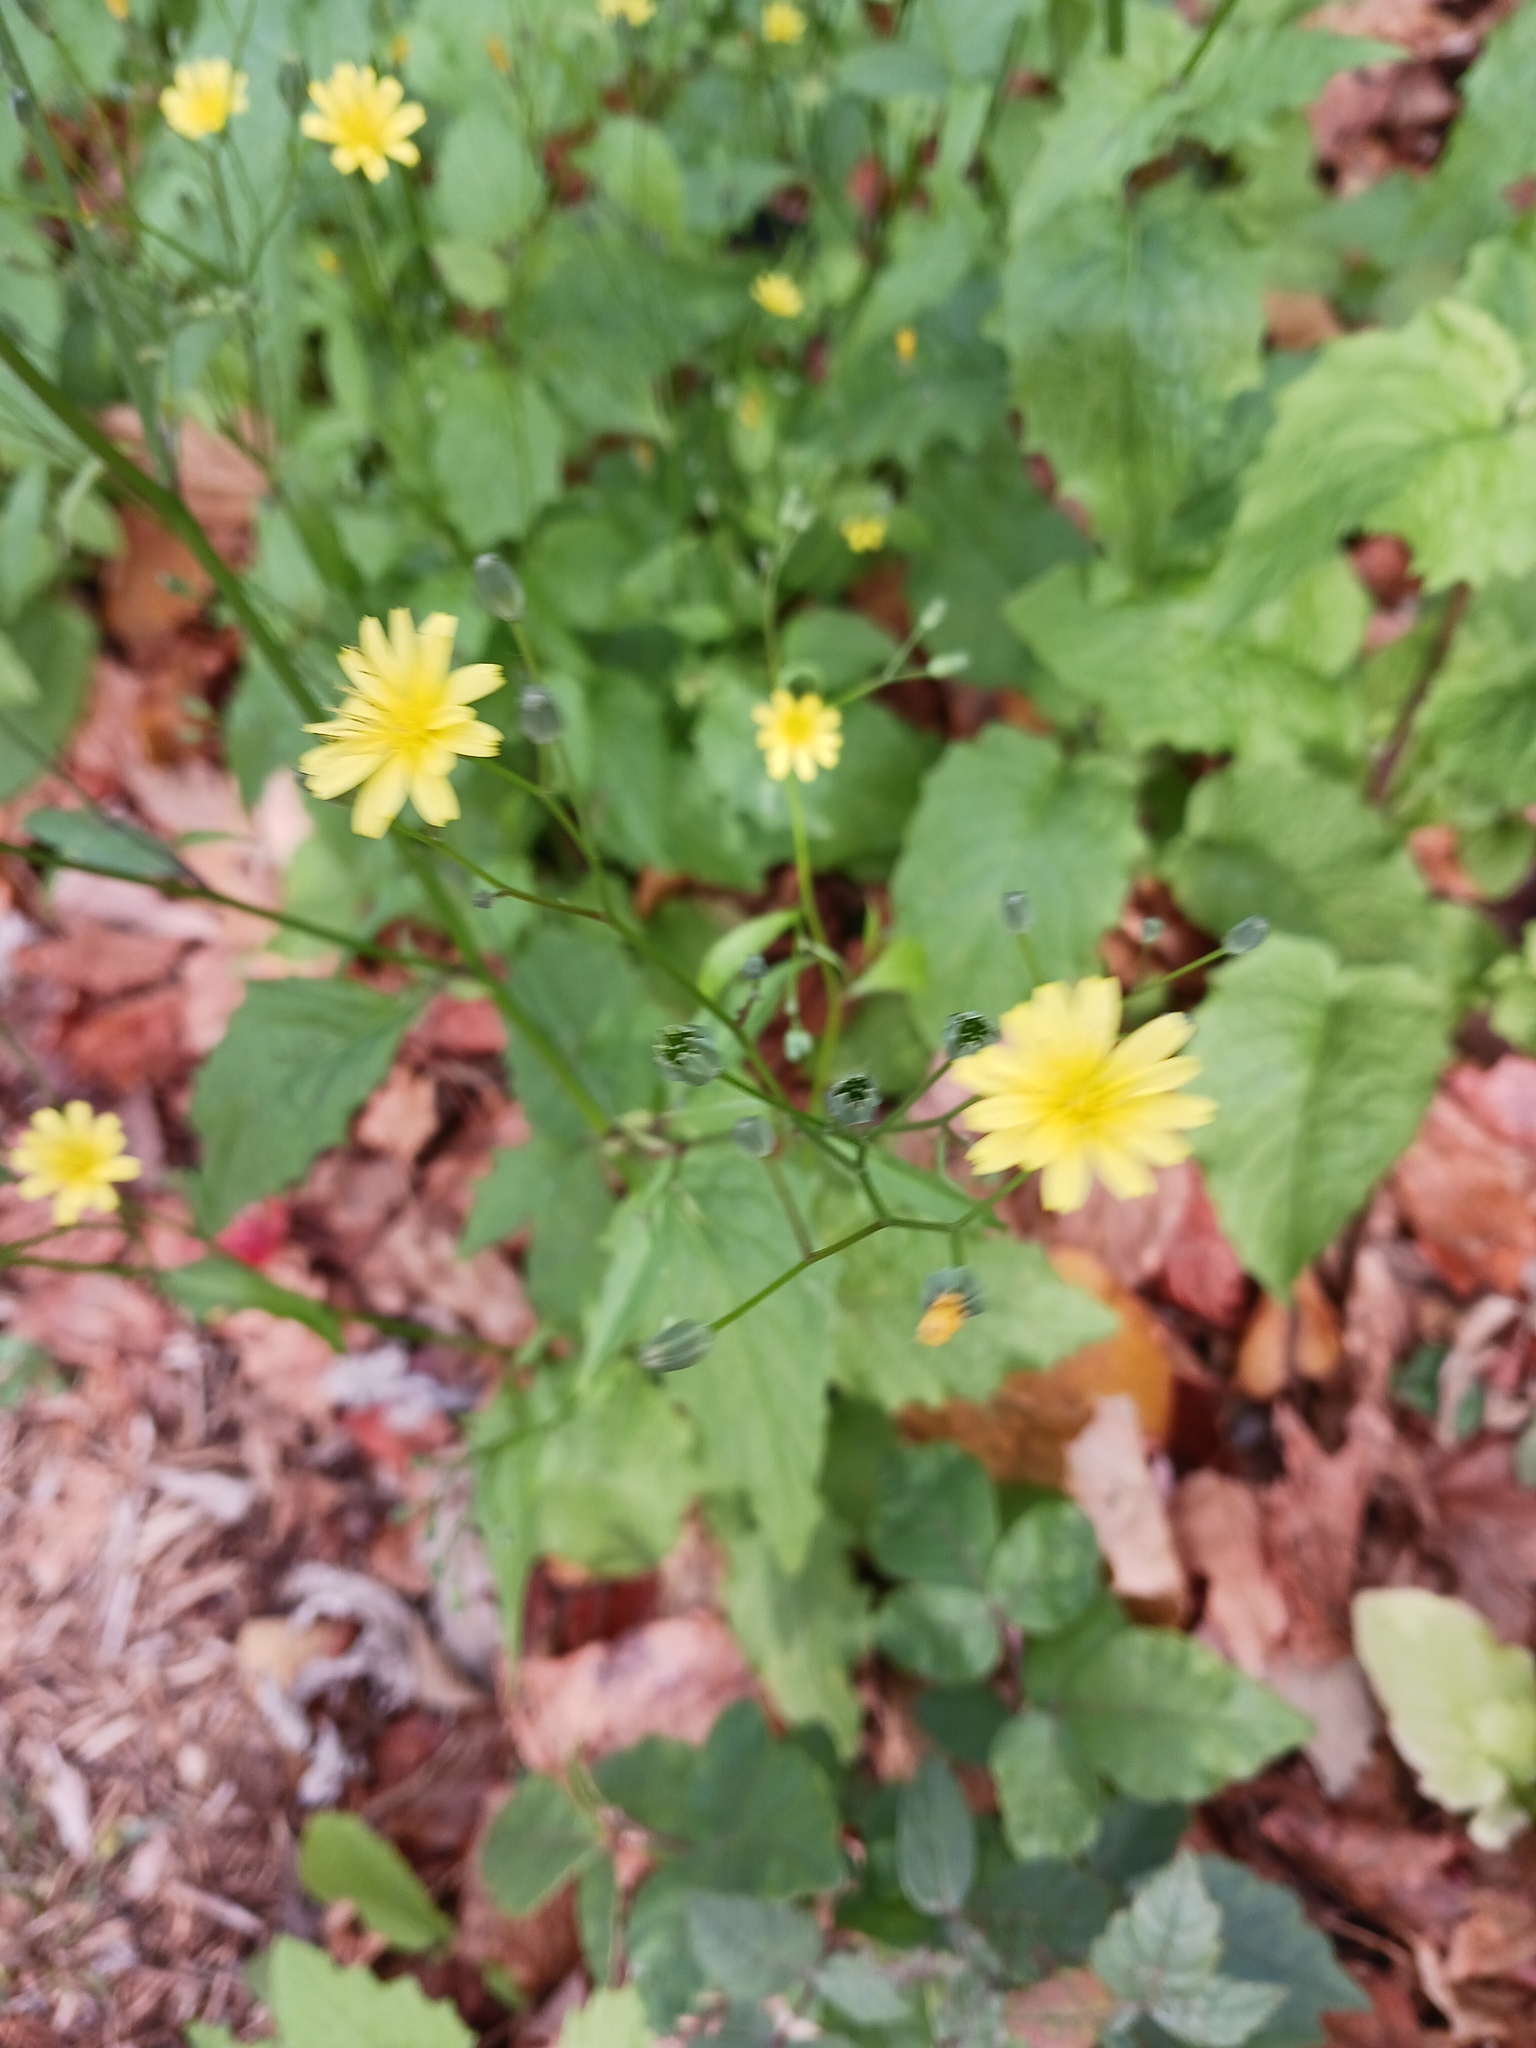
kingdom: Plantae
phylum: Tracheophyta
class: Magnoliopsida
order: Asterales
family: Asteraceae
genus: Lapsana
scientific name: Lapsana communis
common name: Nipplewort
